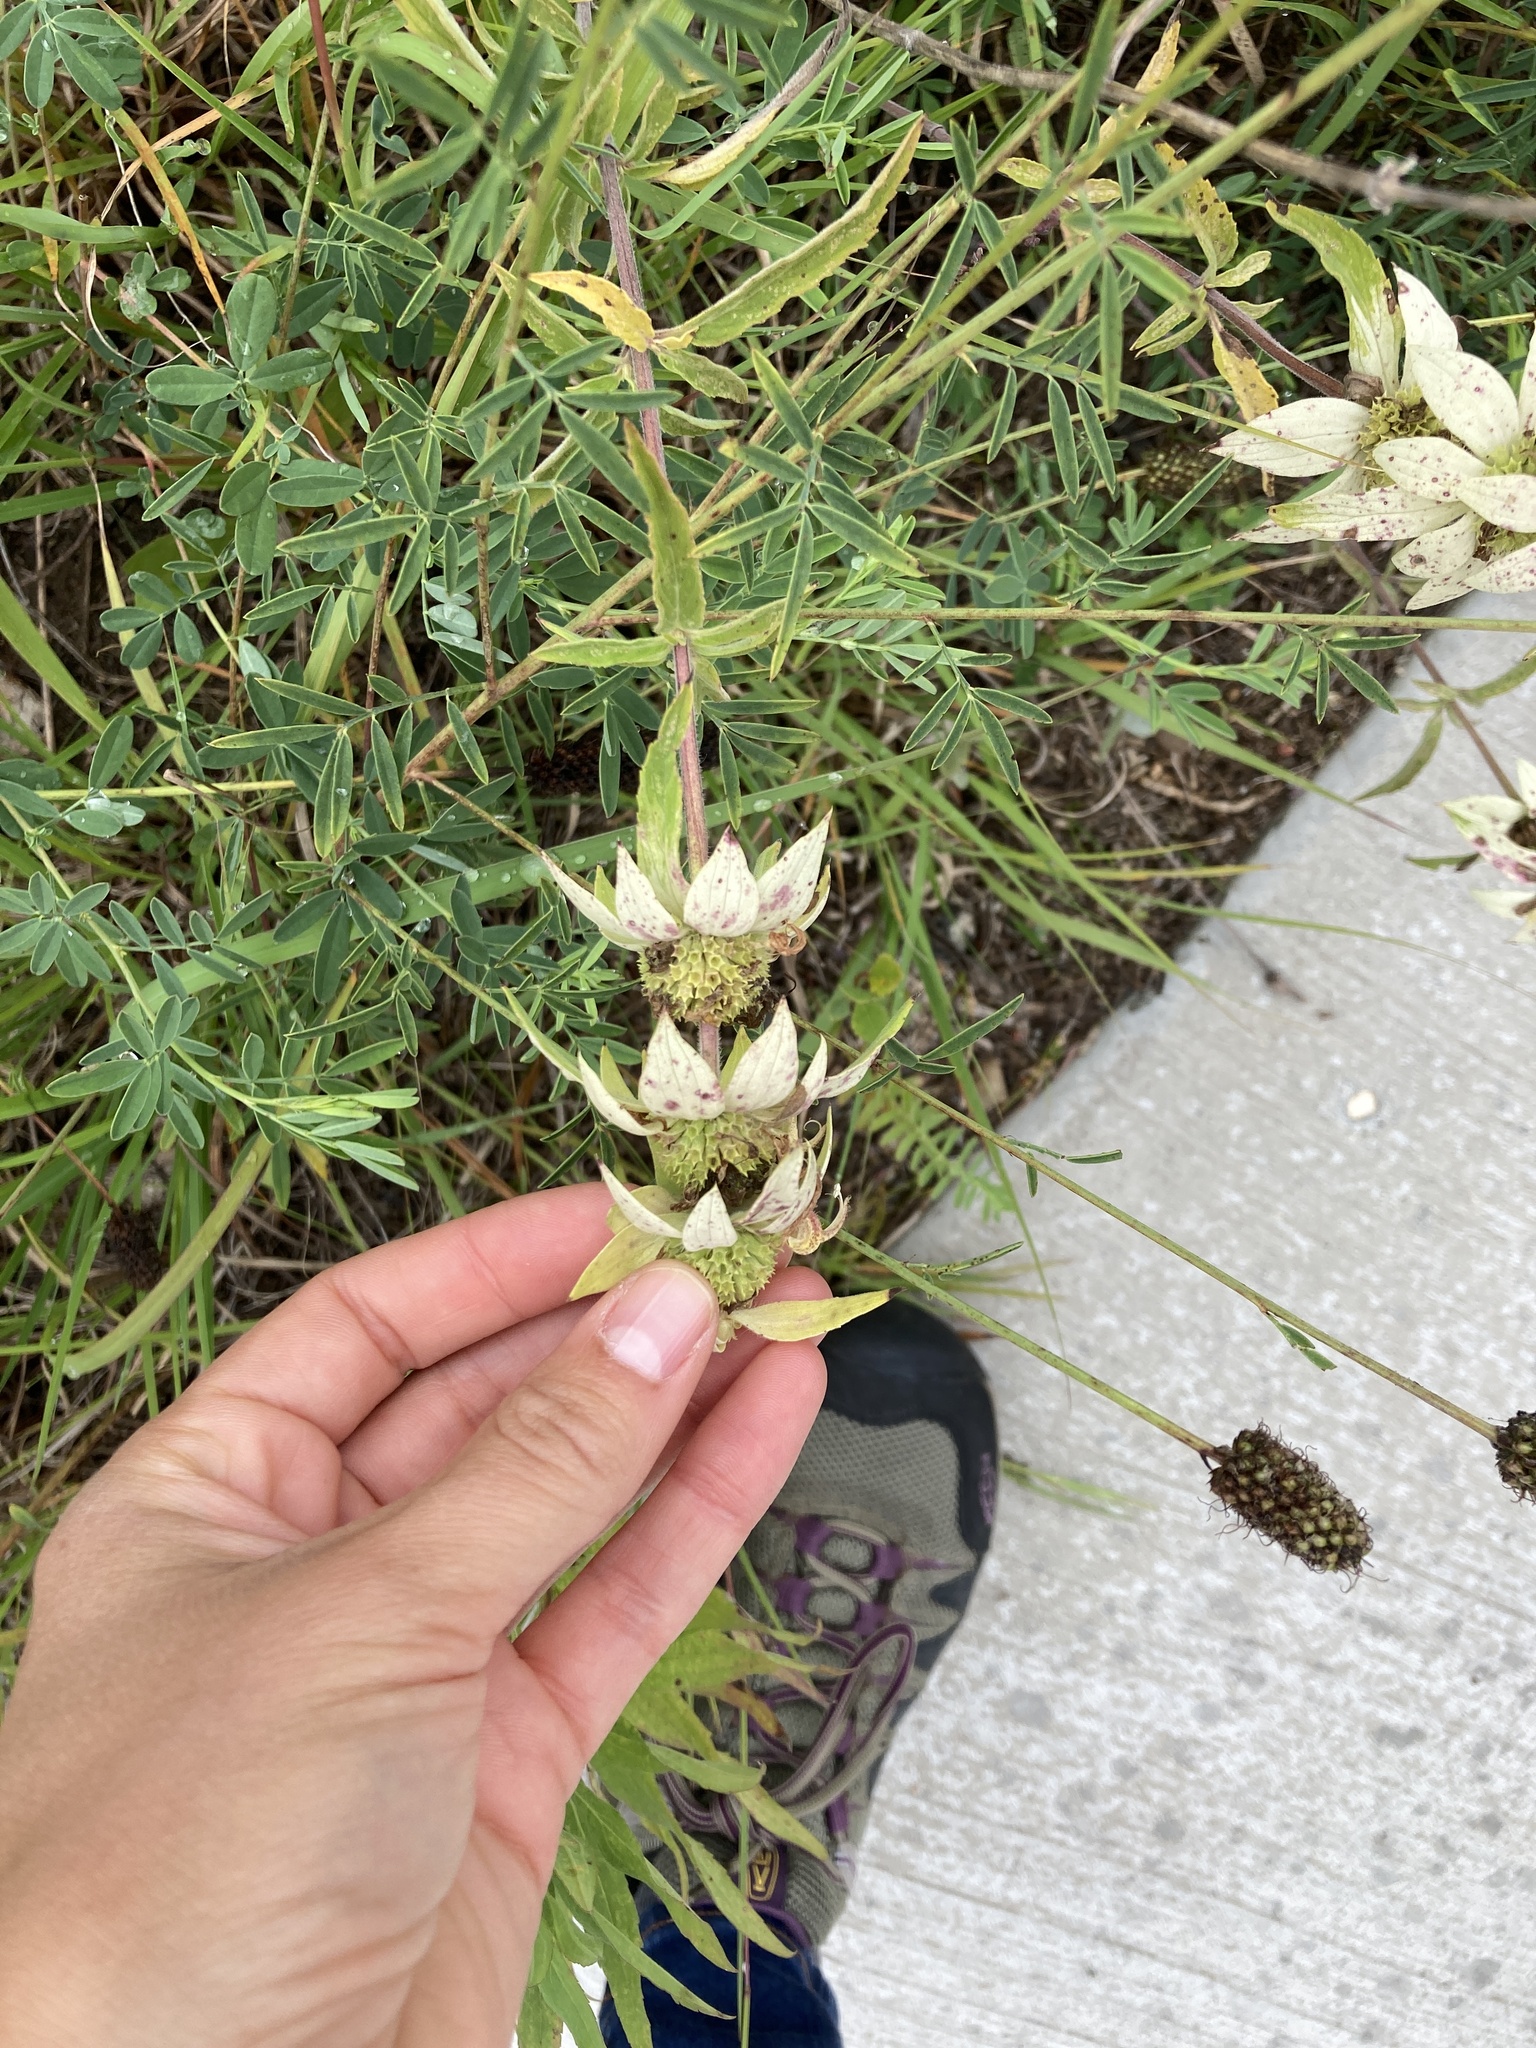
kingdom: Plantae
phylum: Tracheophyta
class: Magnoliopsida
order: Lamiales
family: Lamiaceae
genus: Monarda
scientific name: Monarda punctata
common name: Dotted monarda
